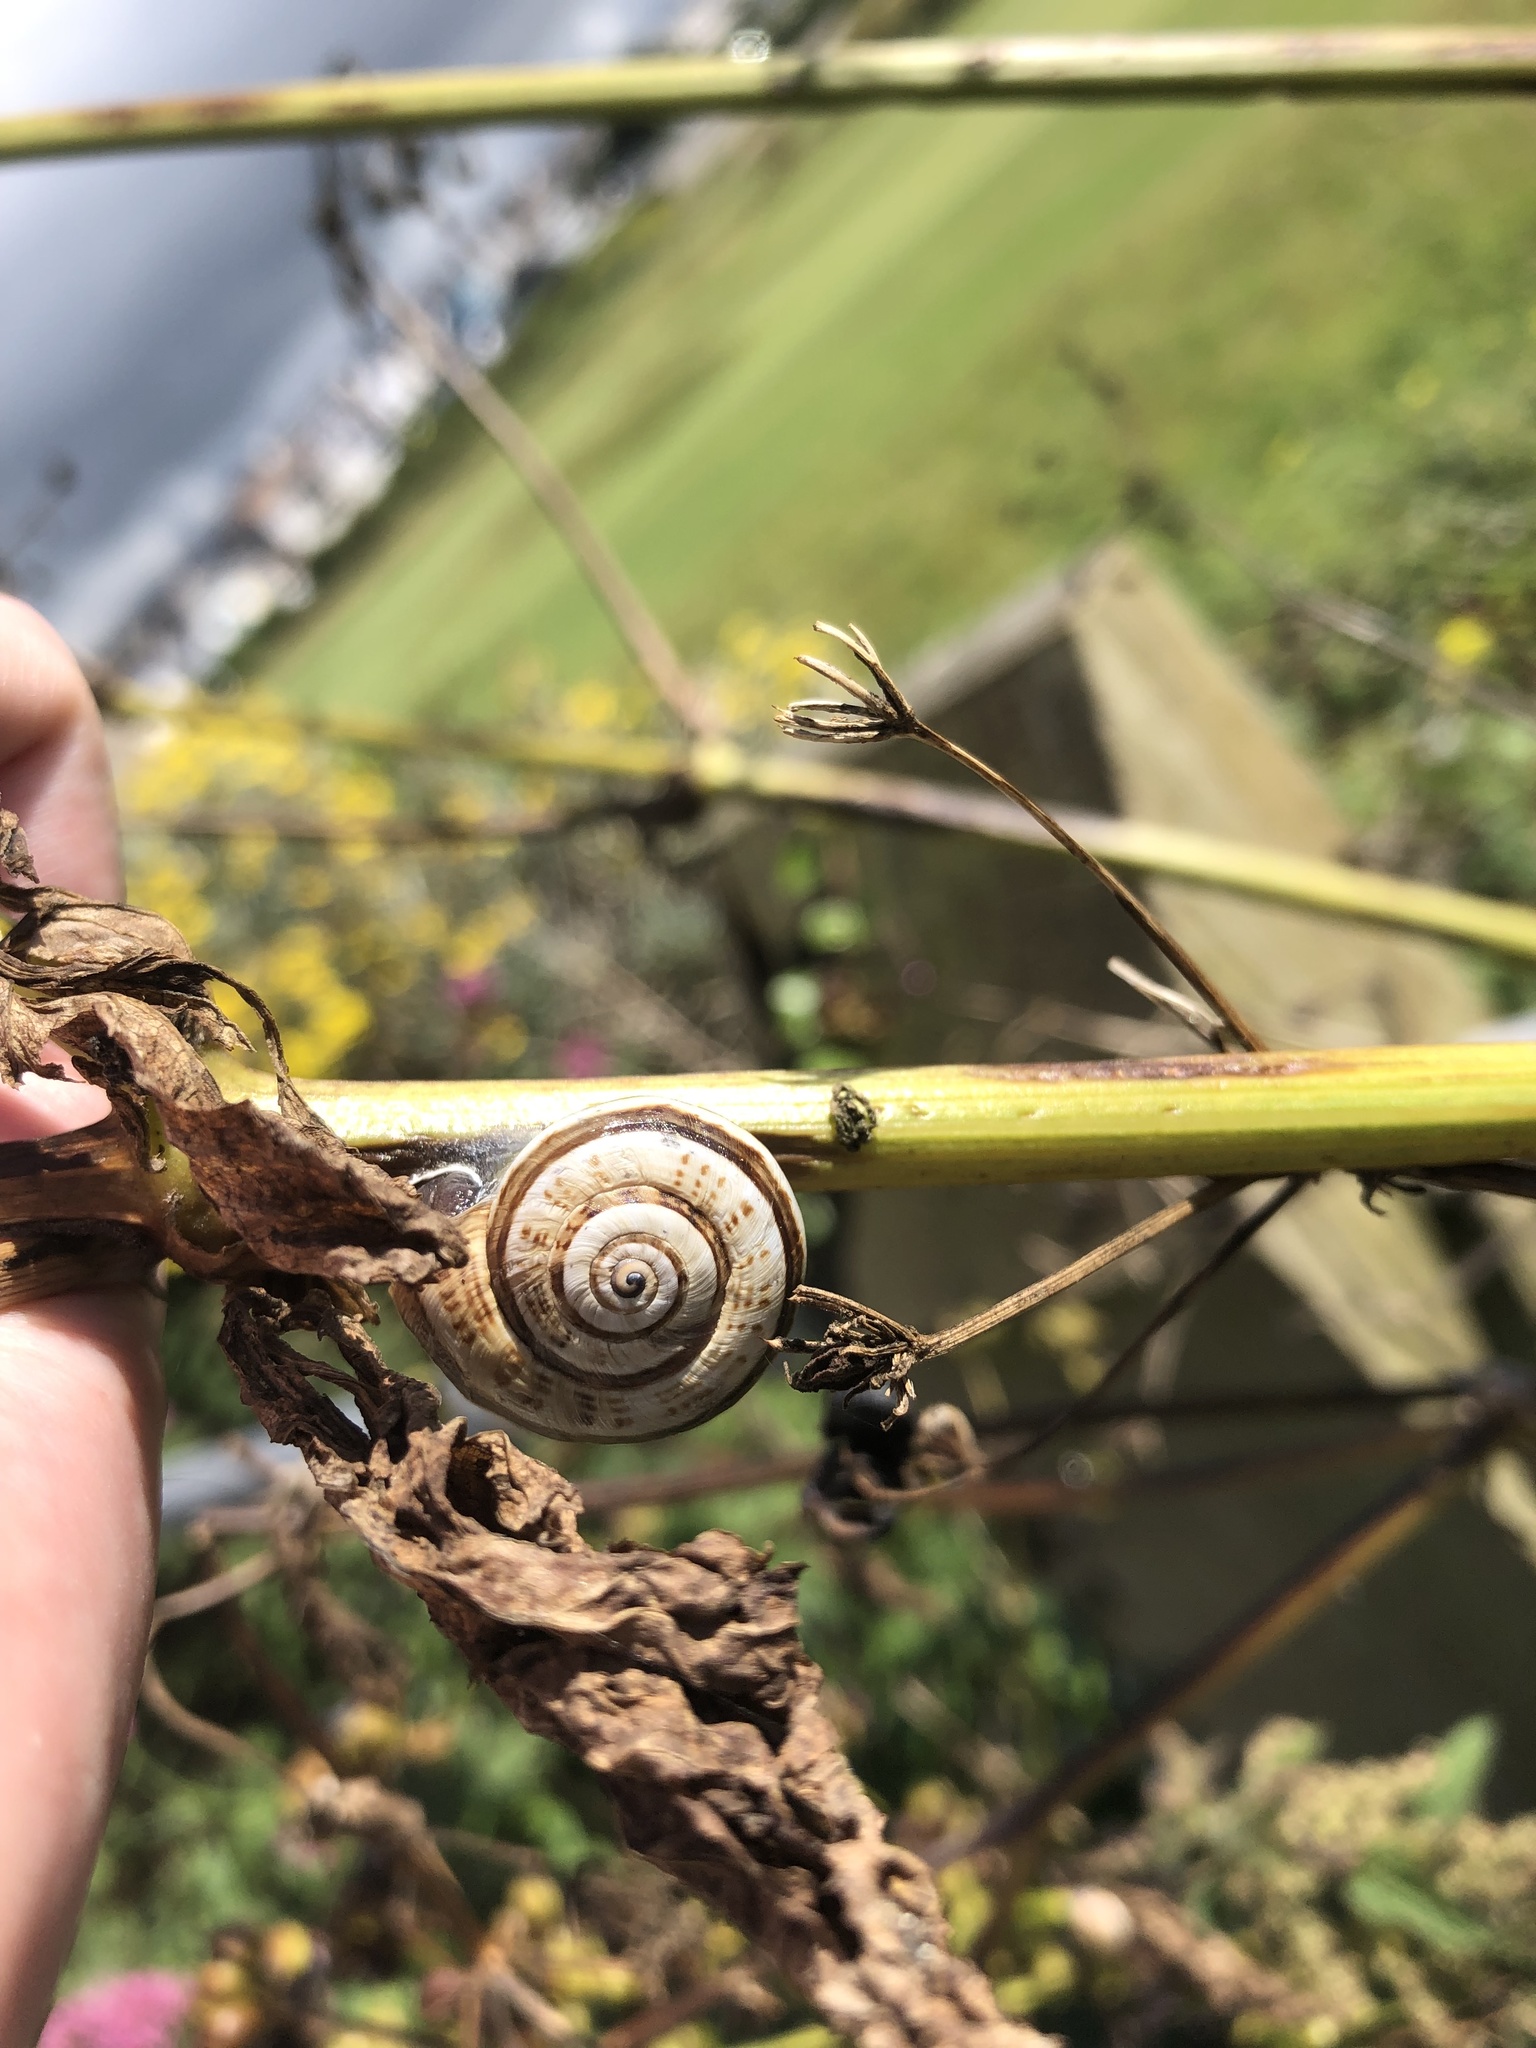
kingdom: Animalia
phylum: Mollusca
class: Gastropoda
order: Stylommatophora
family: Helicidae
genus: Theba
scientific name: Theba pisana
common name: White snail
